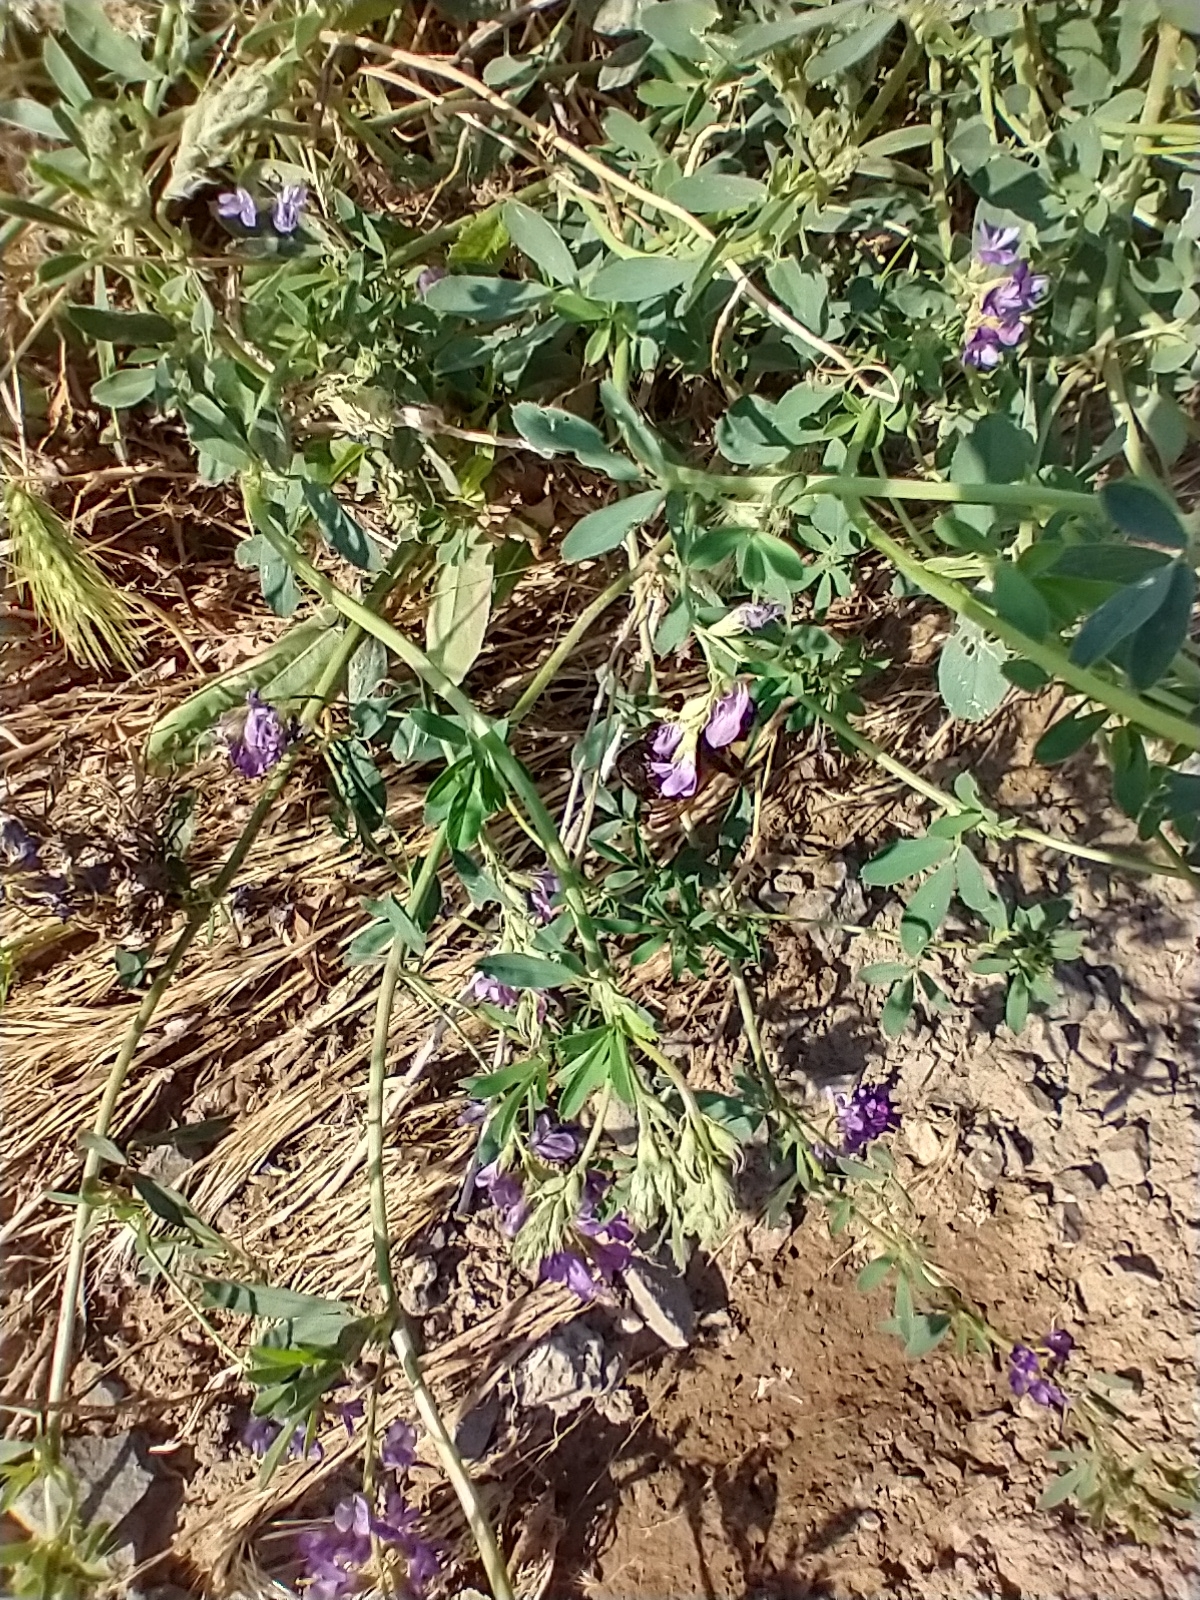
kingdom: Animalia
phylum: Arthropoda
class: Insecta
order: Hymenoptera
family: Apidae
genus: Bombus
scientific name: Bombus griseocollis
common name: Brown-belted bumble bee
